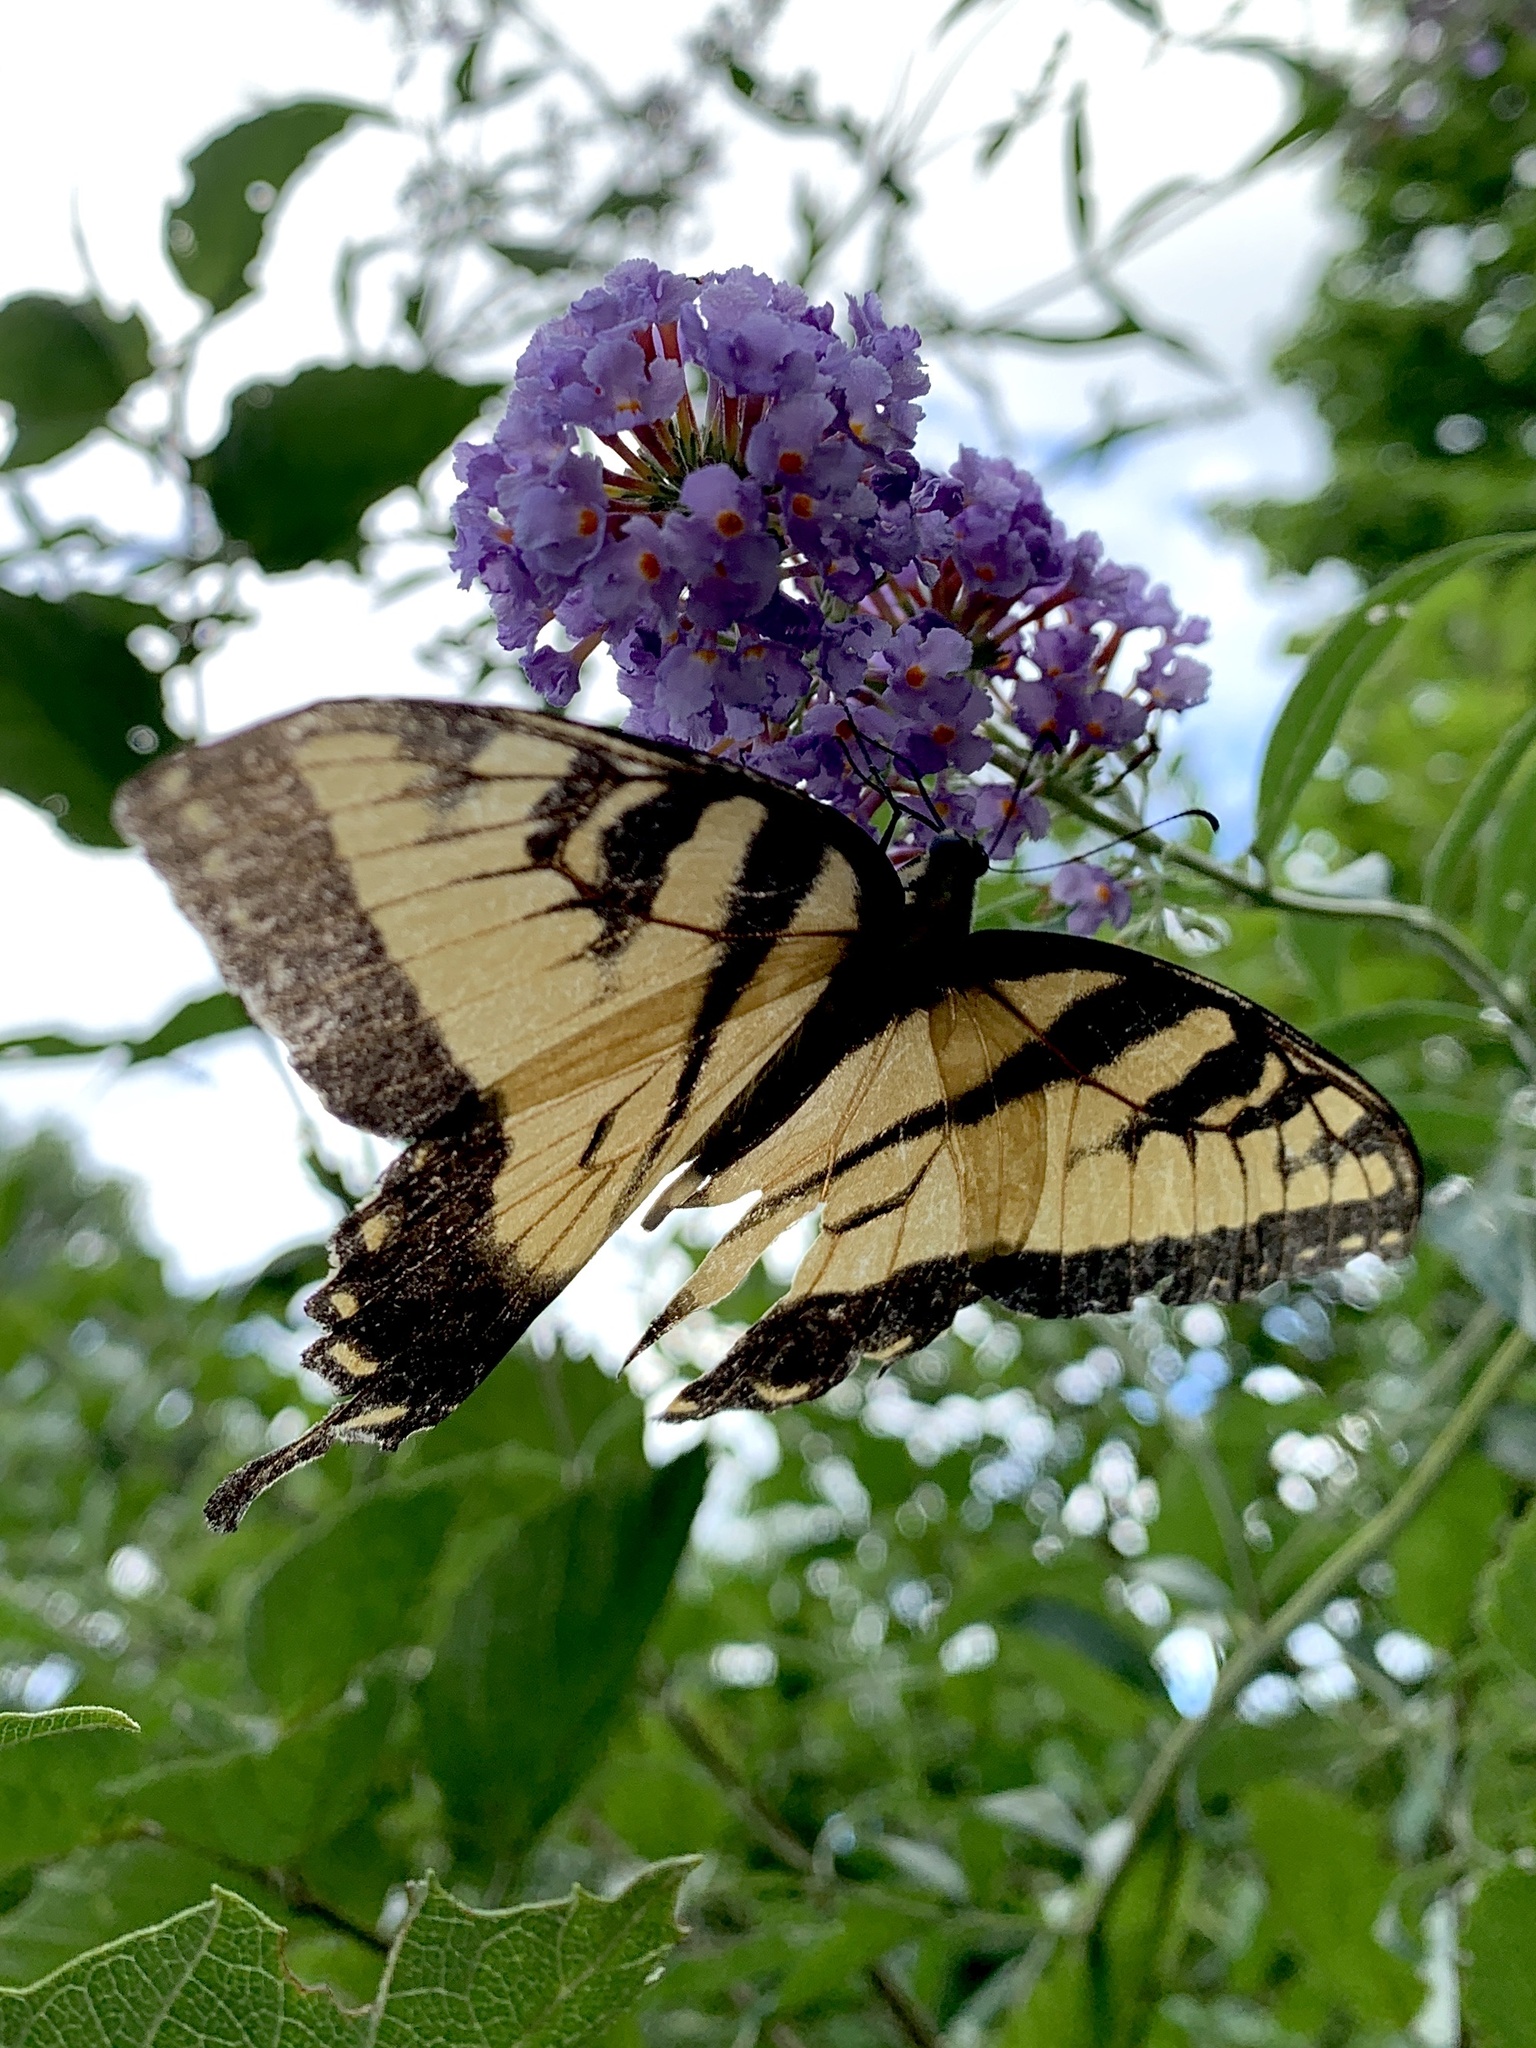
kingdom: Animalia
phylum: Arthropoda
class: Insecta
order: Lepidoptera
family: Papilionidae
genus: Papilio
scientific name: Papilio glaucus
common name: Tiger swallowtail
